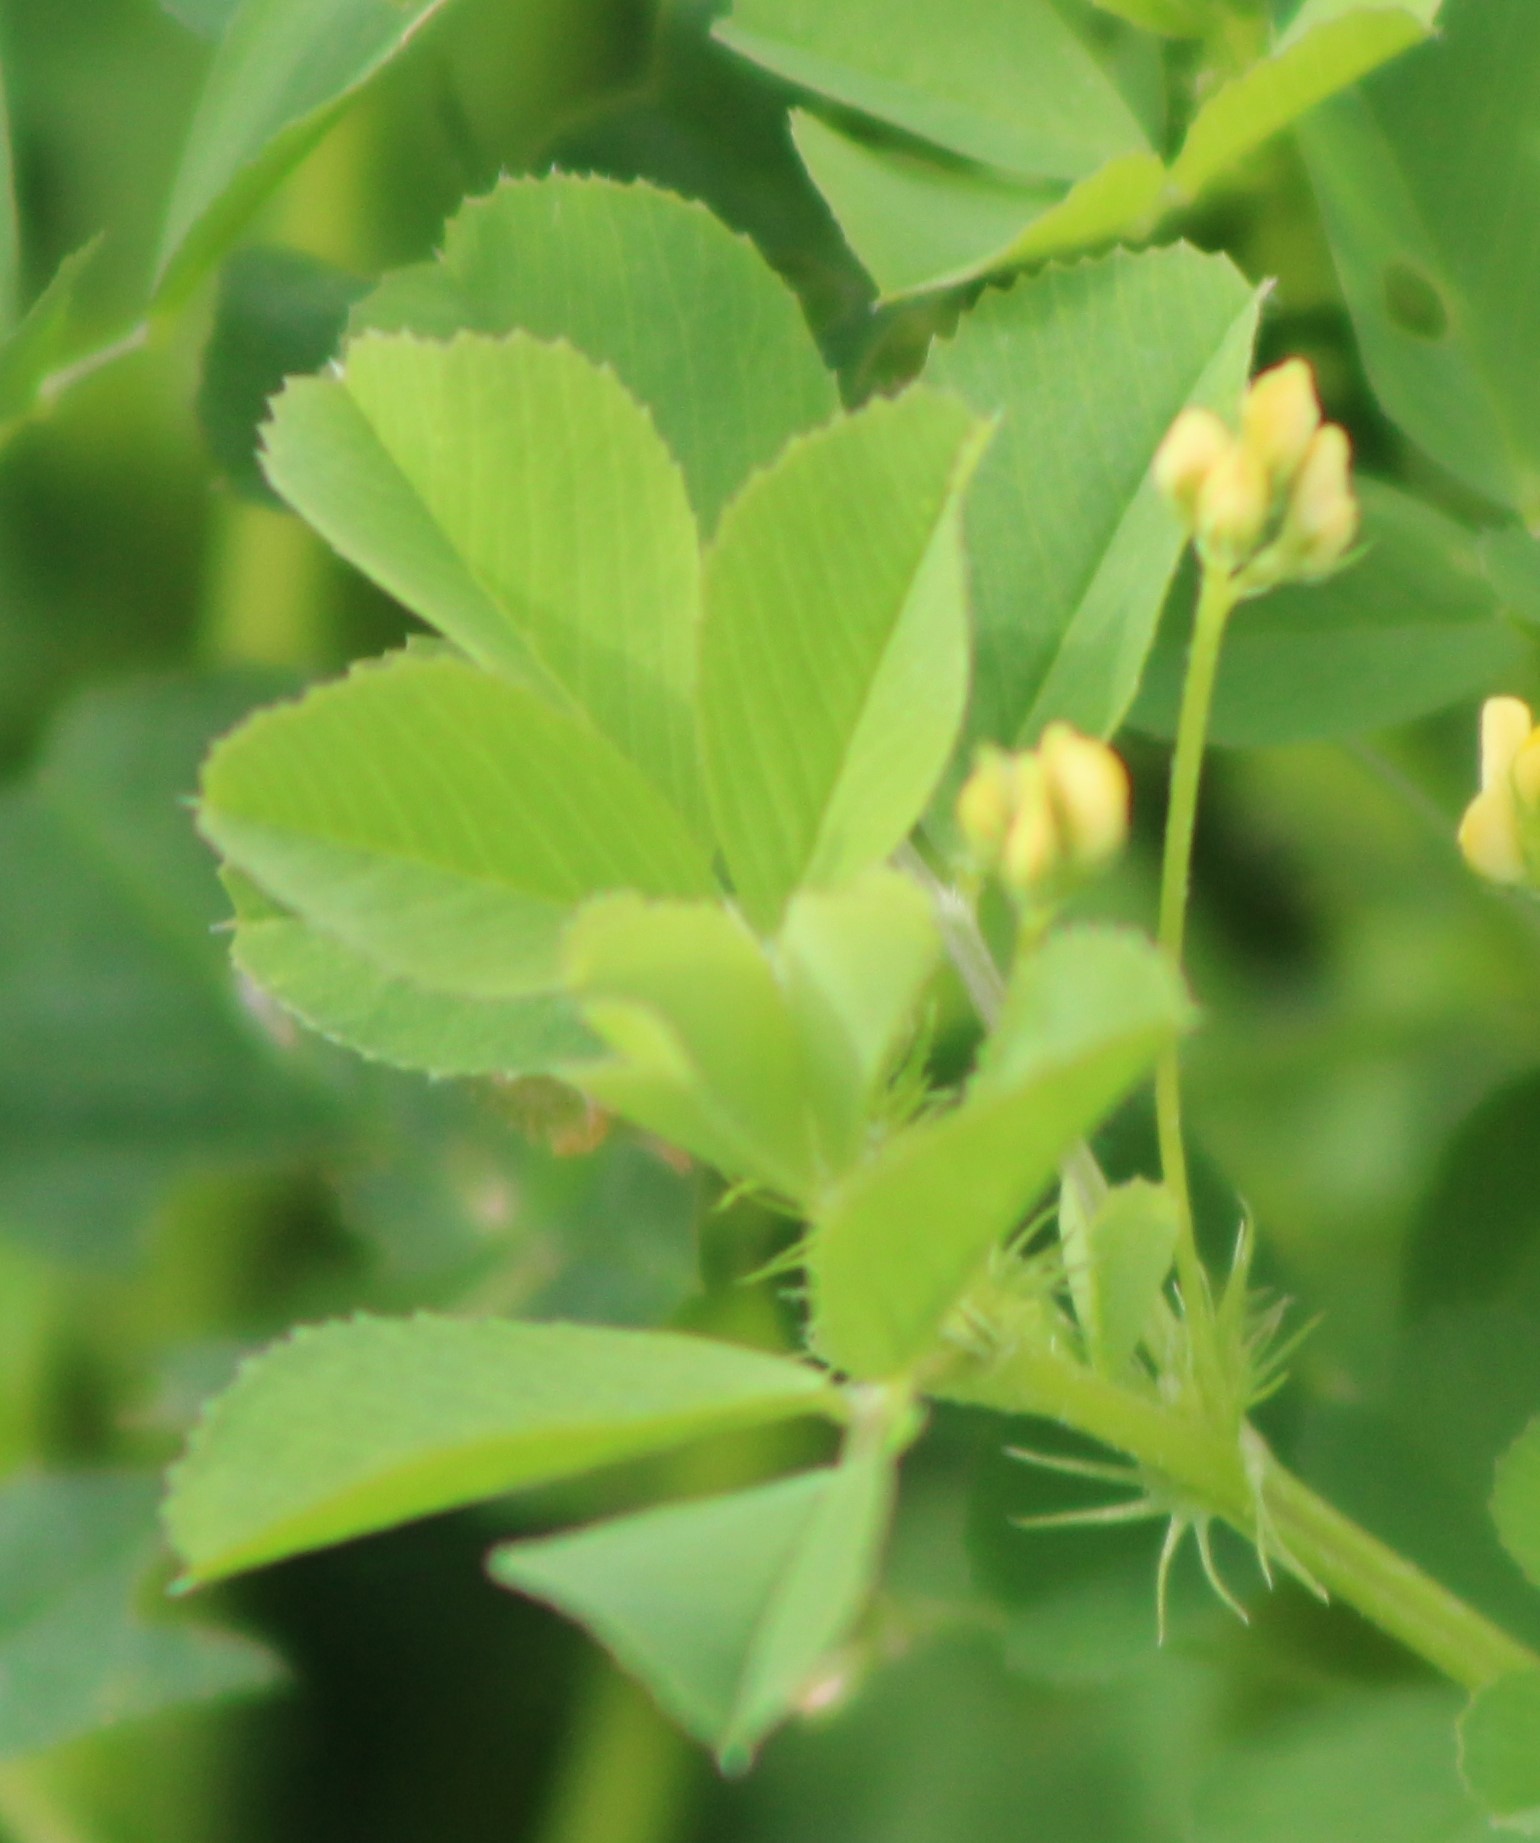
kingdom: Plantae
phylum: Tracheophyta
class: Magnoliopsida
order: Fabales
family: Fabaceae
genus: Medicago
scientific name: Medicago polymorpha
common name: Burclover
